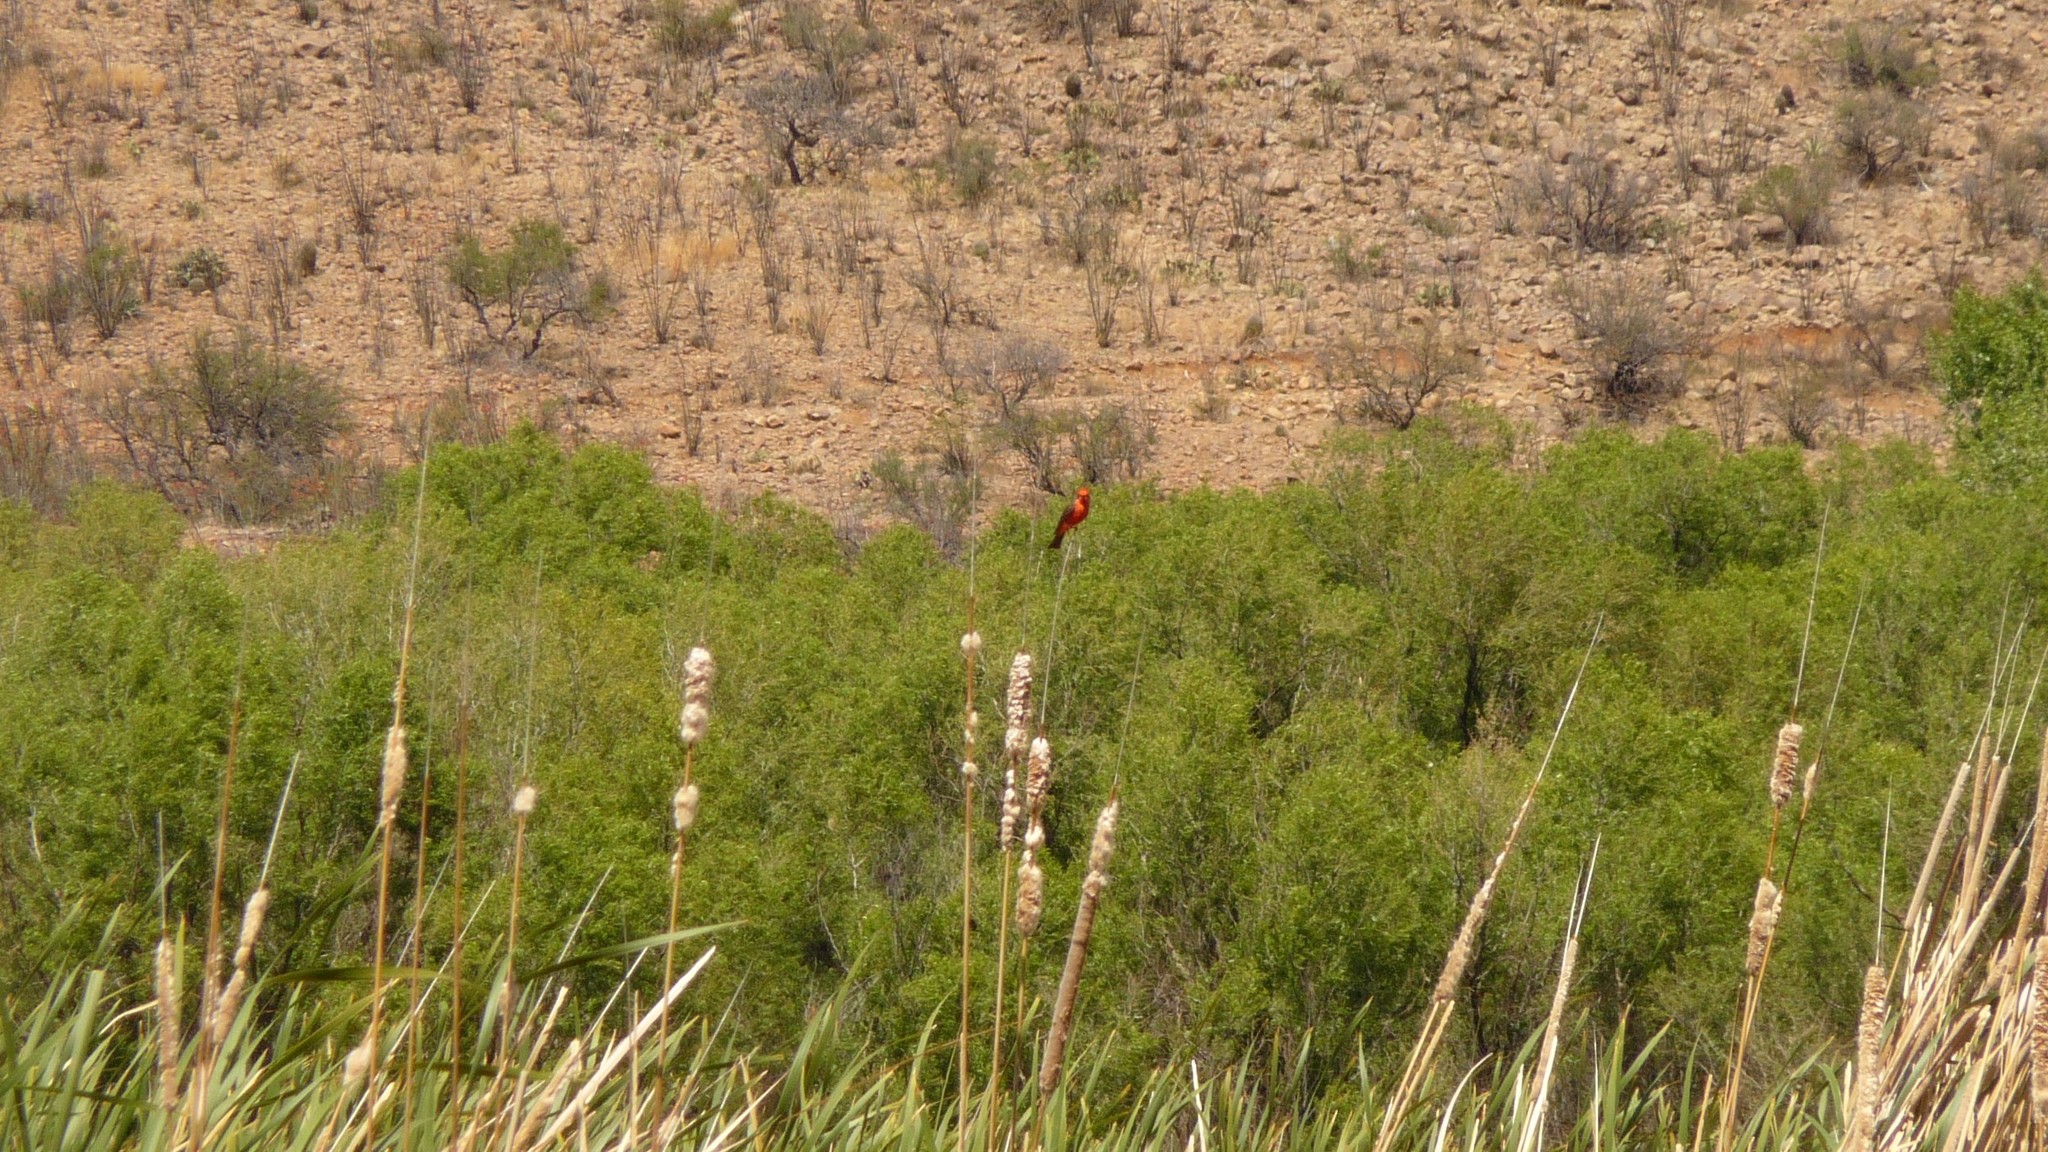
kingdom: Animalia
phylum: Chordata
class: Aves
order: Passeriformes
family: Tyrannidae
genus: Pyrocephalus
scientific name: Pyrocephalus rubinus
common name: Vermilion flycatcher
